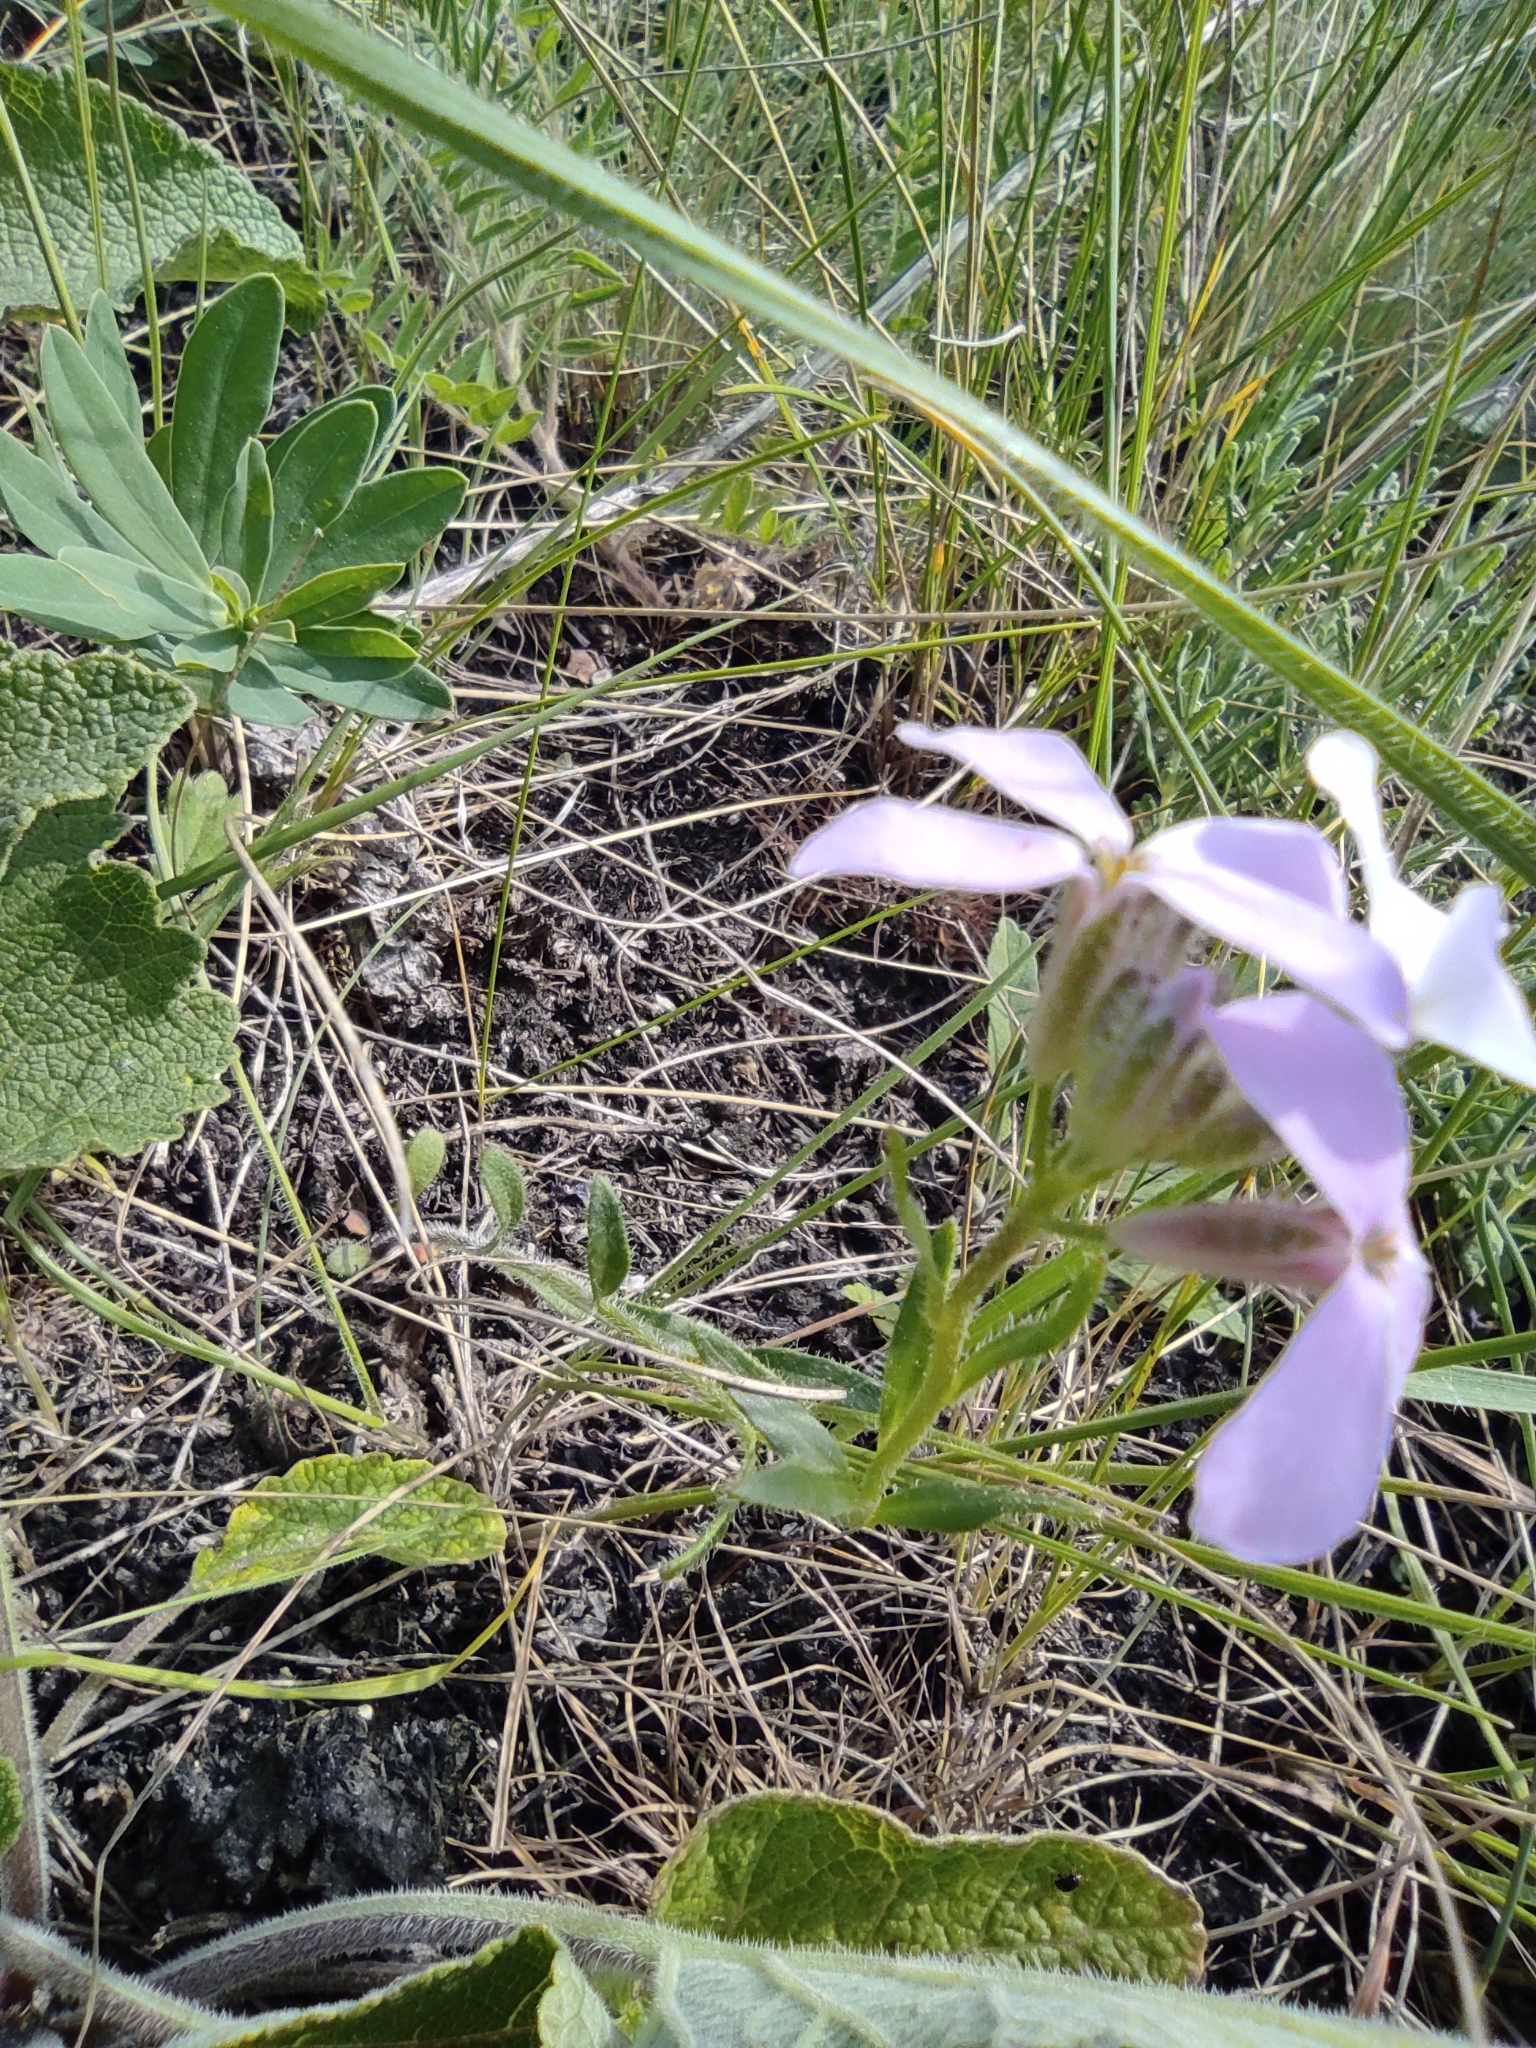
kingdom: Plantae
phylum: Tracheophyta
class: Magnoliopsida
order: Brassicales
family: Brassicaceae
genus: Clausia
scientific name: Clausia aprica
